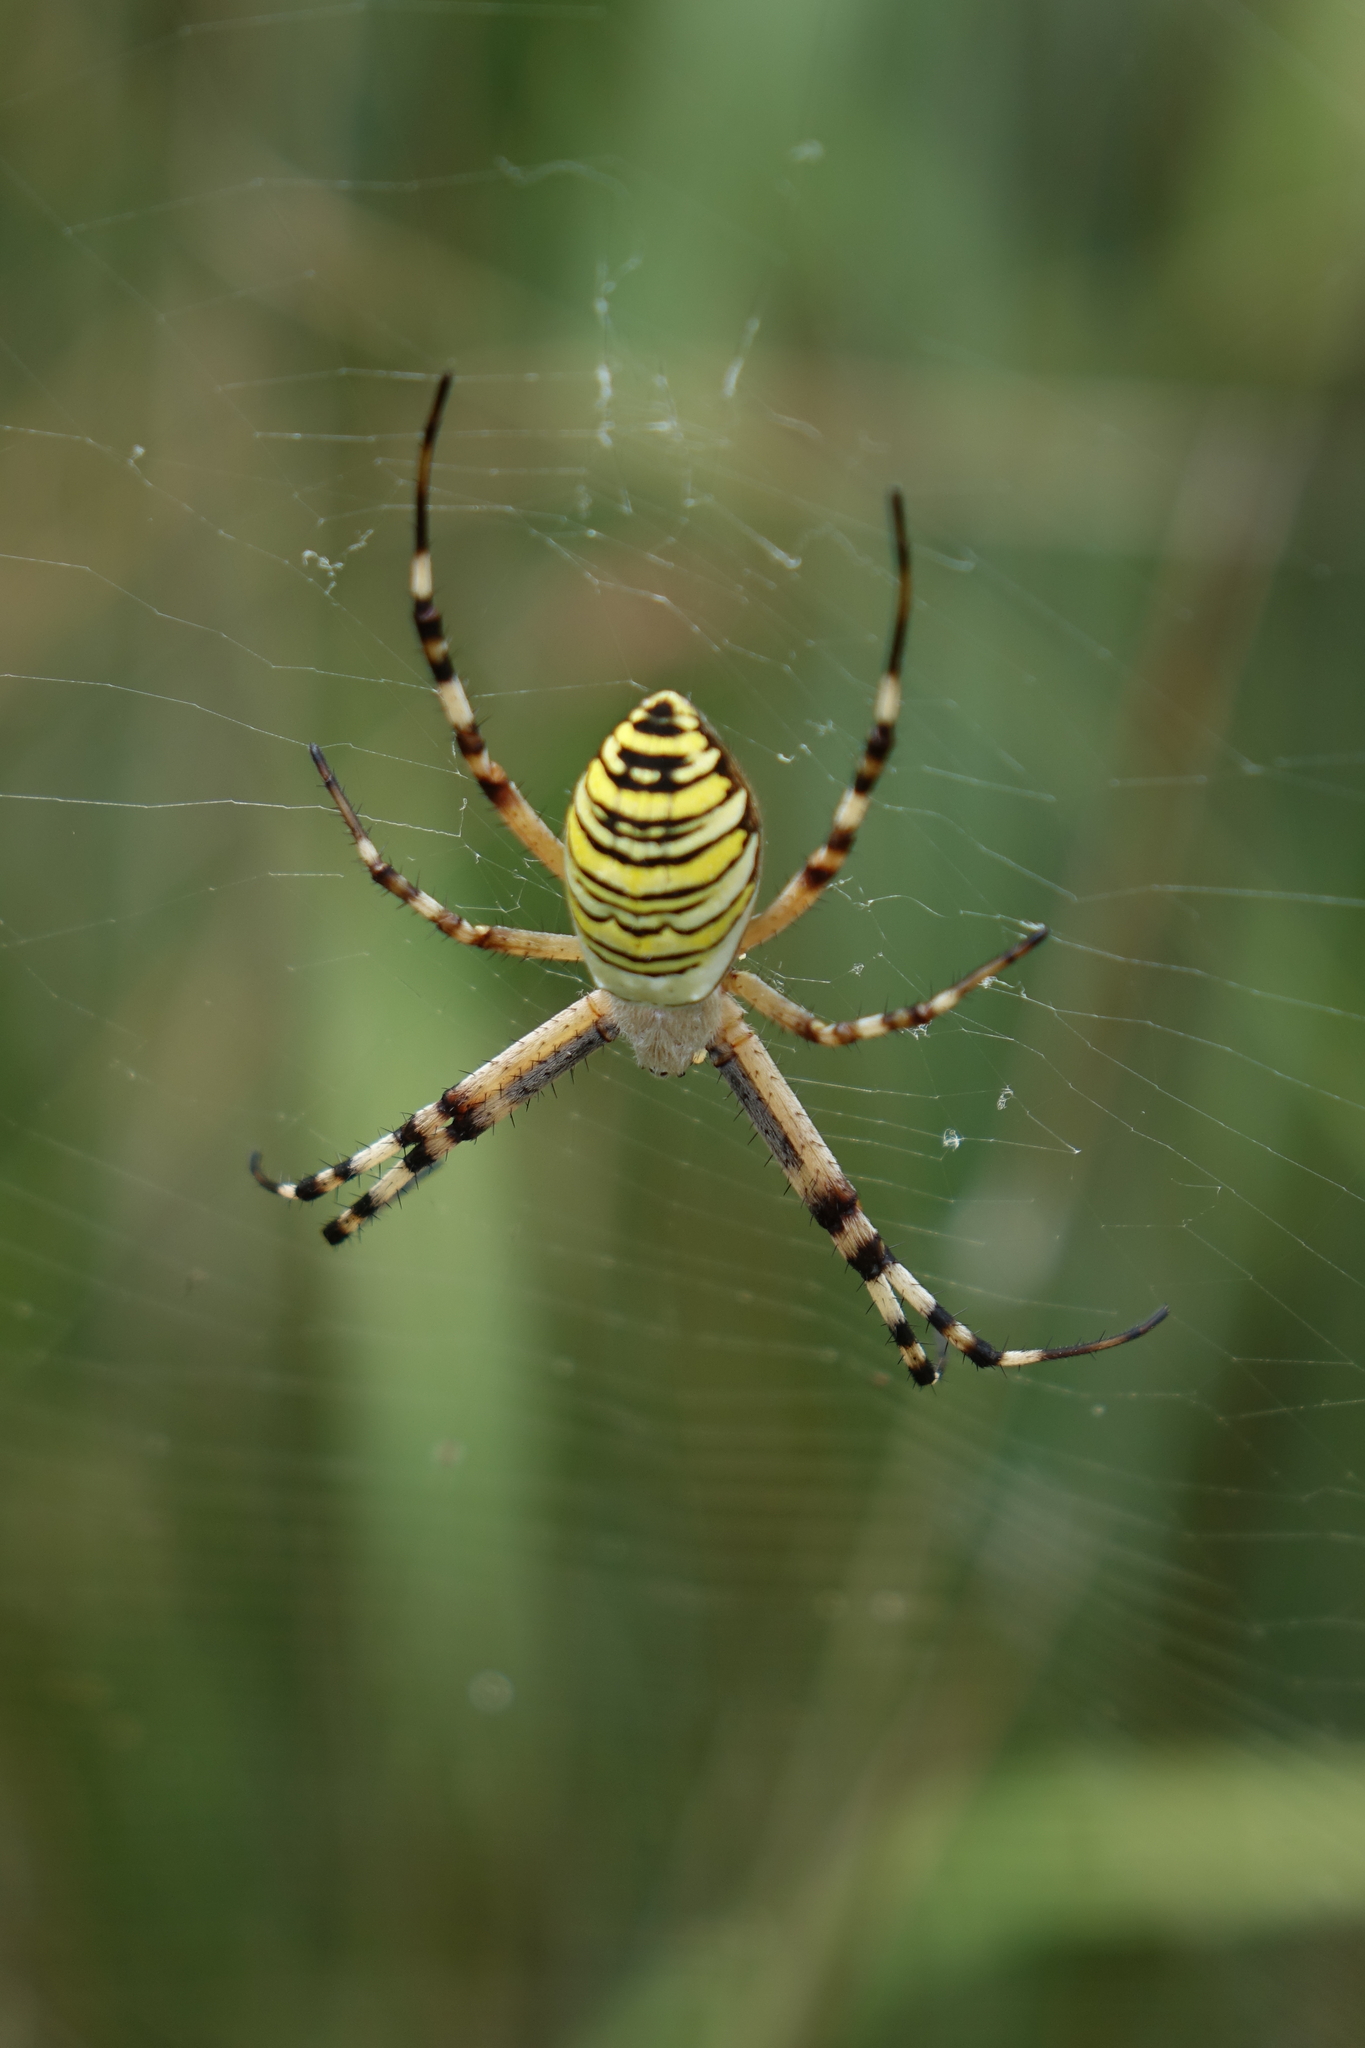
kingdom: Animalia
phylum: Arthropoda
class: Arachnida
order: Araneae
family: Araneidae
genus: Argiope
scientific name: Argiope bruennichi
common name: Wasp spider
